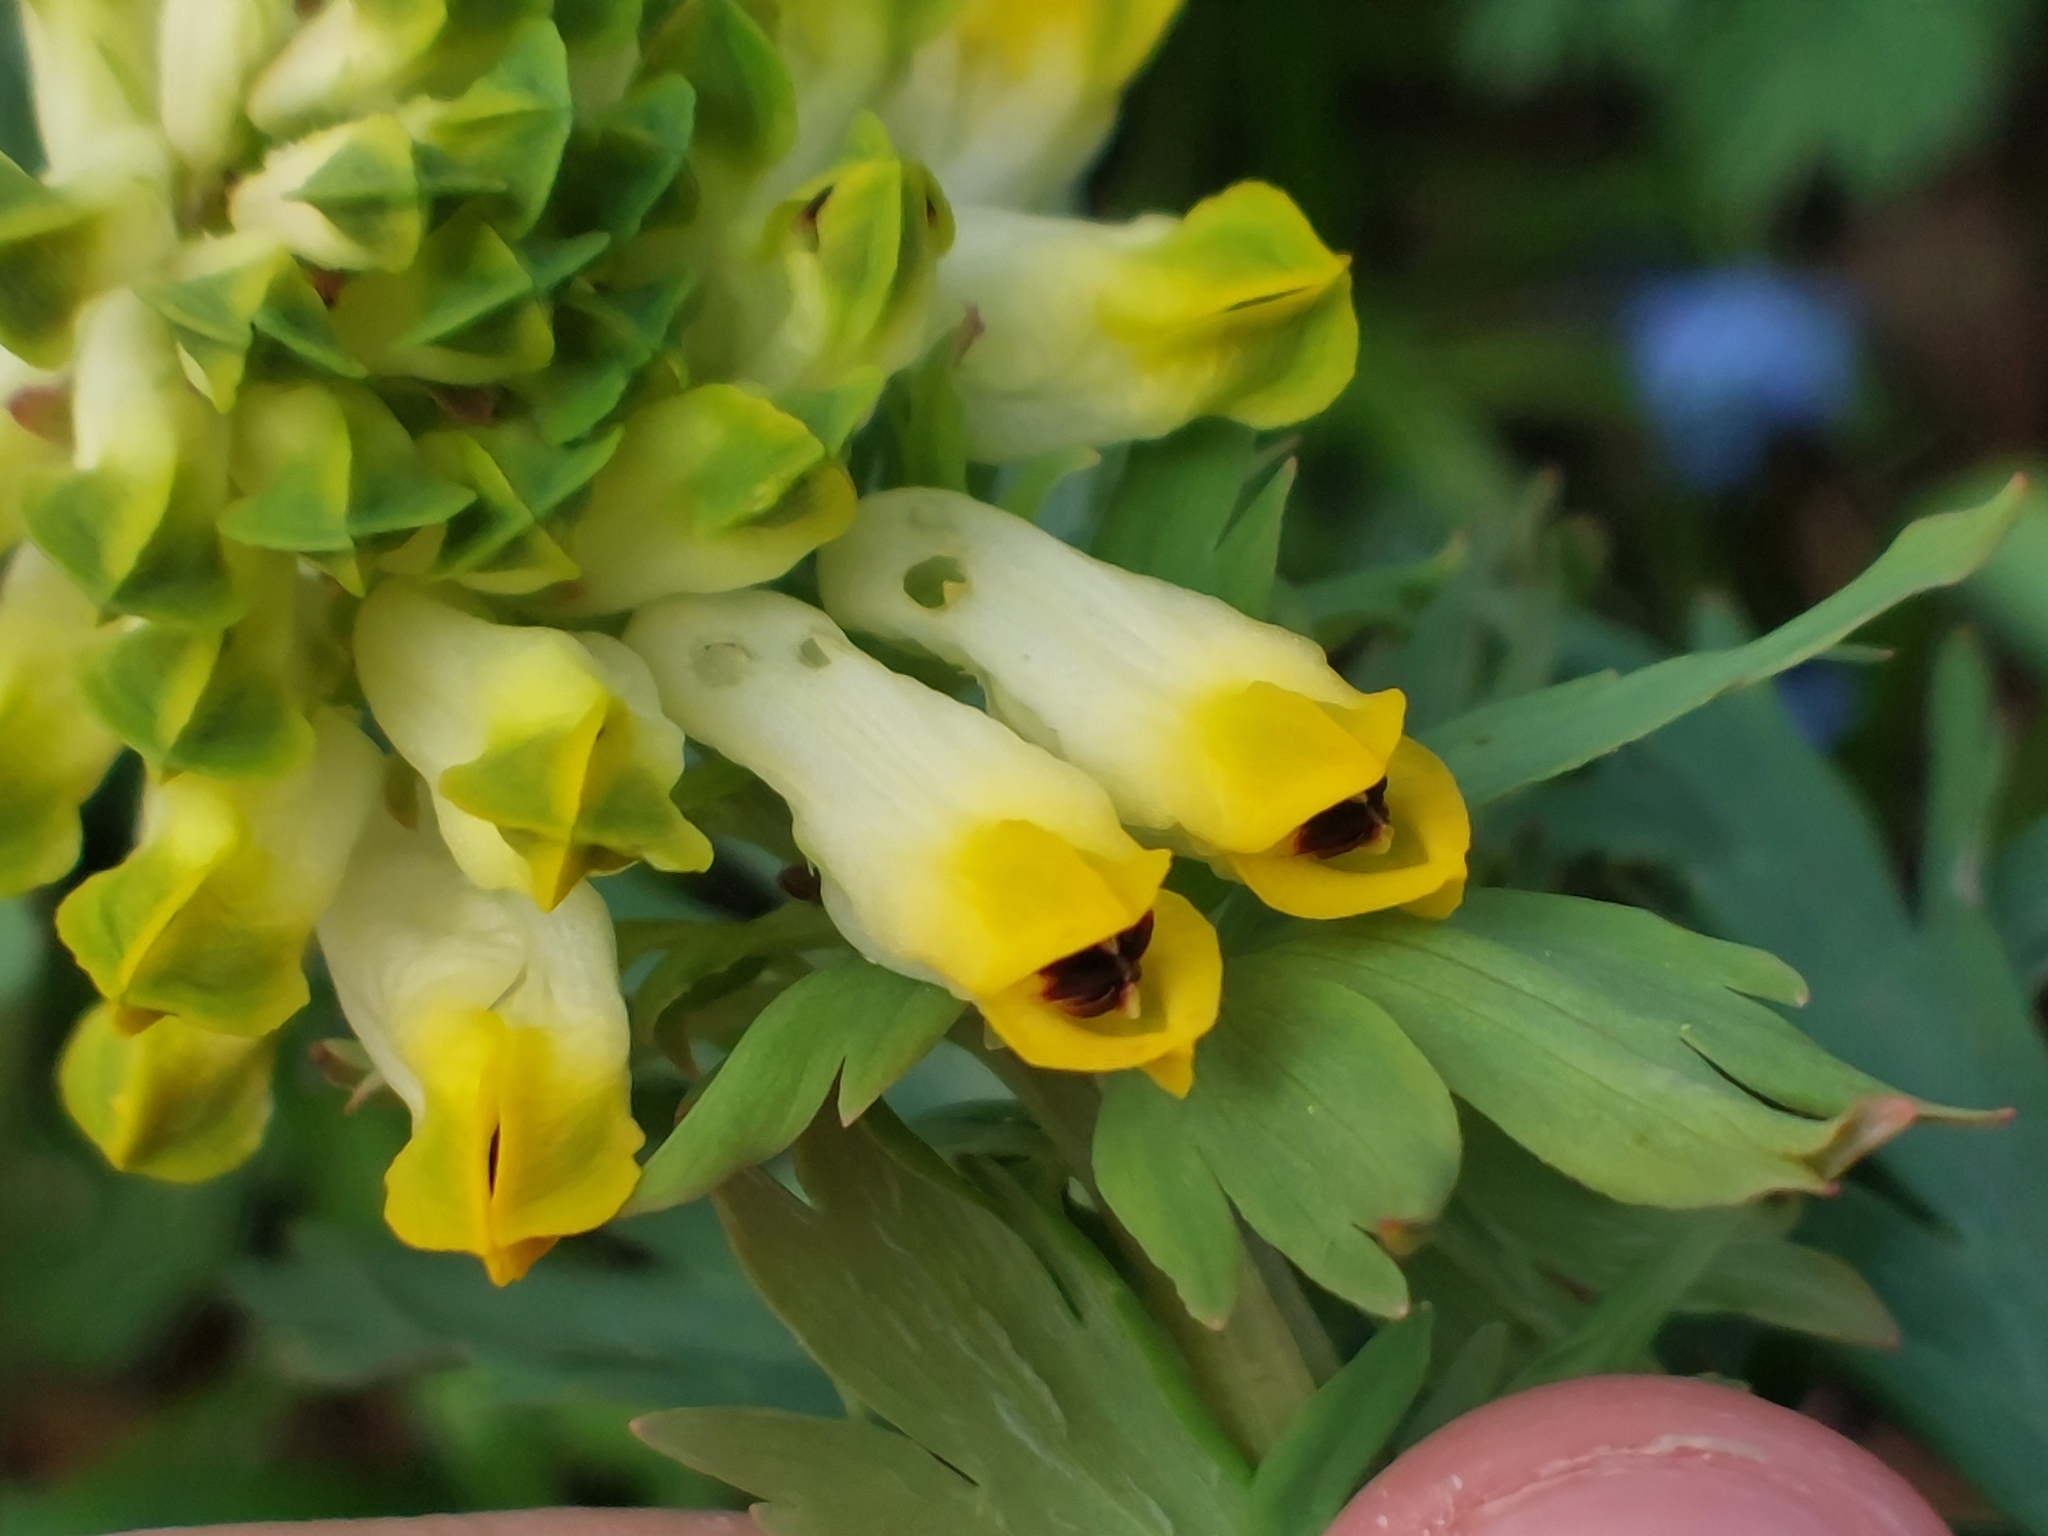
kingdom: Plantae
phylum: Tracheophyta
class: Magnoliopsida
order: Ranunculales
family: Papaveraceae
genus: Corydalis
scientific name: Corydalis nobilis
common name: Siberian corydalis
